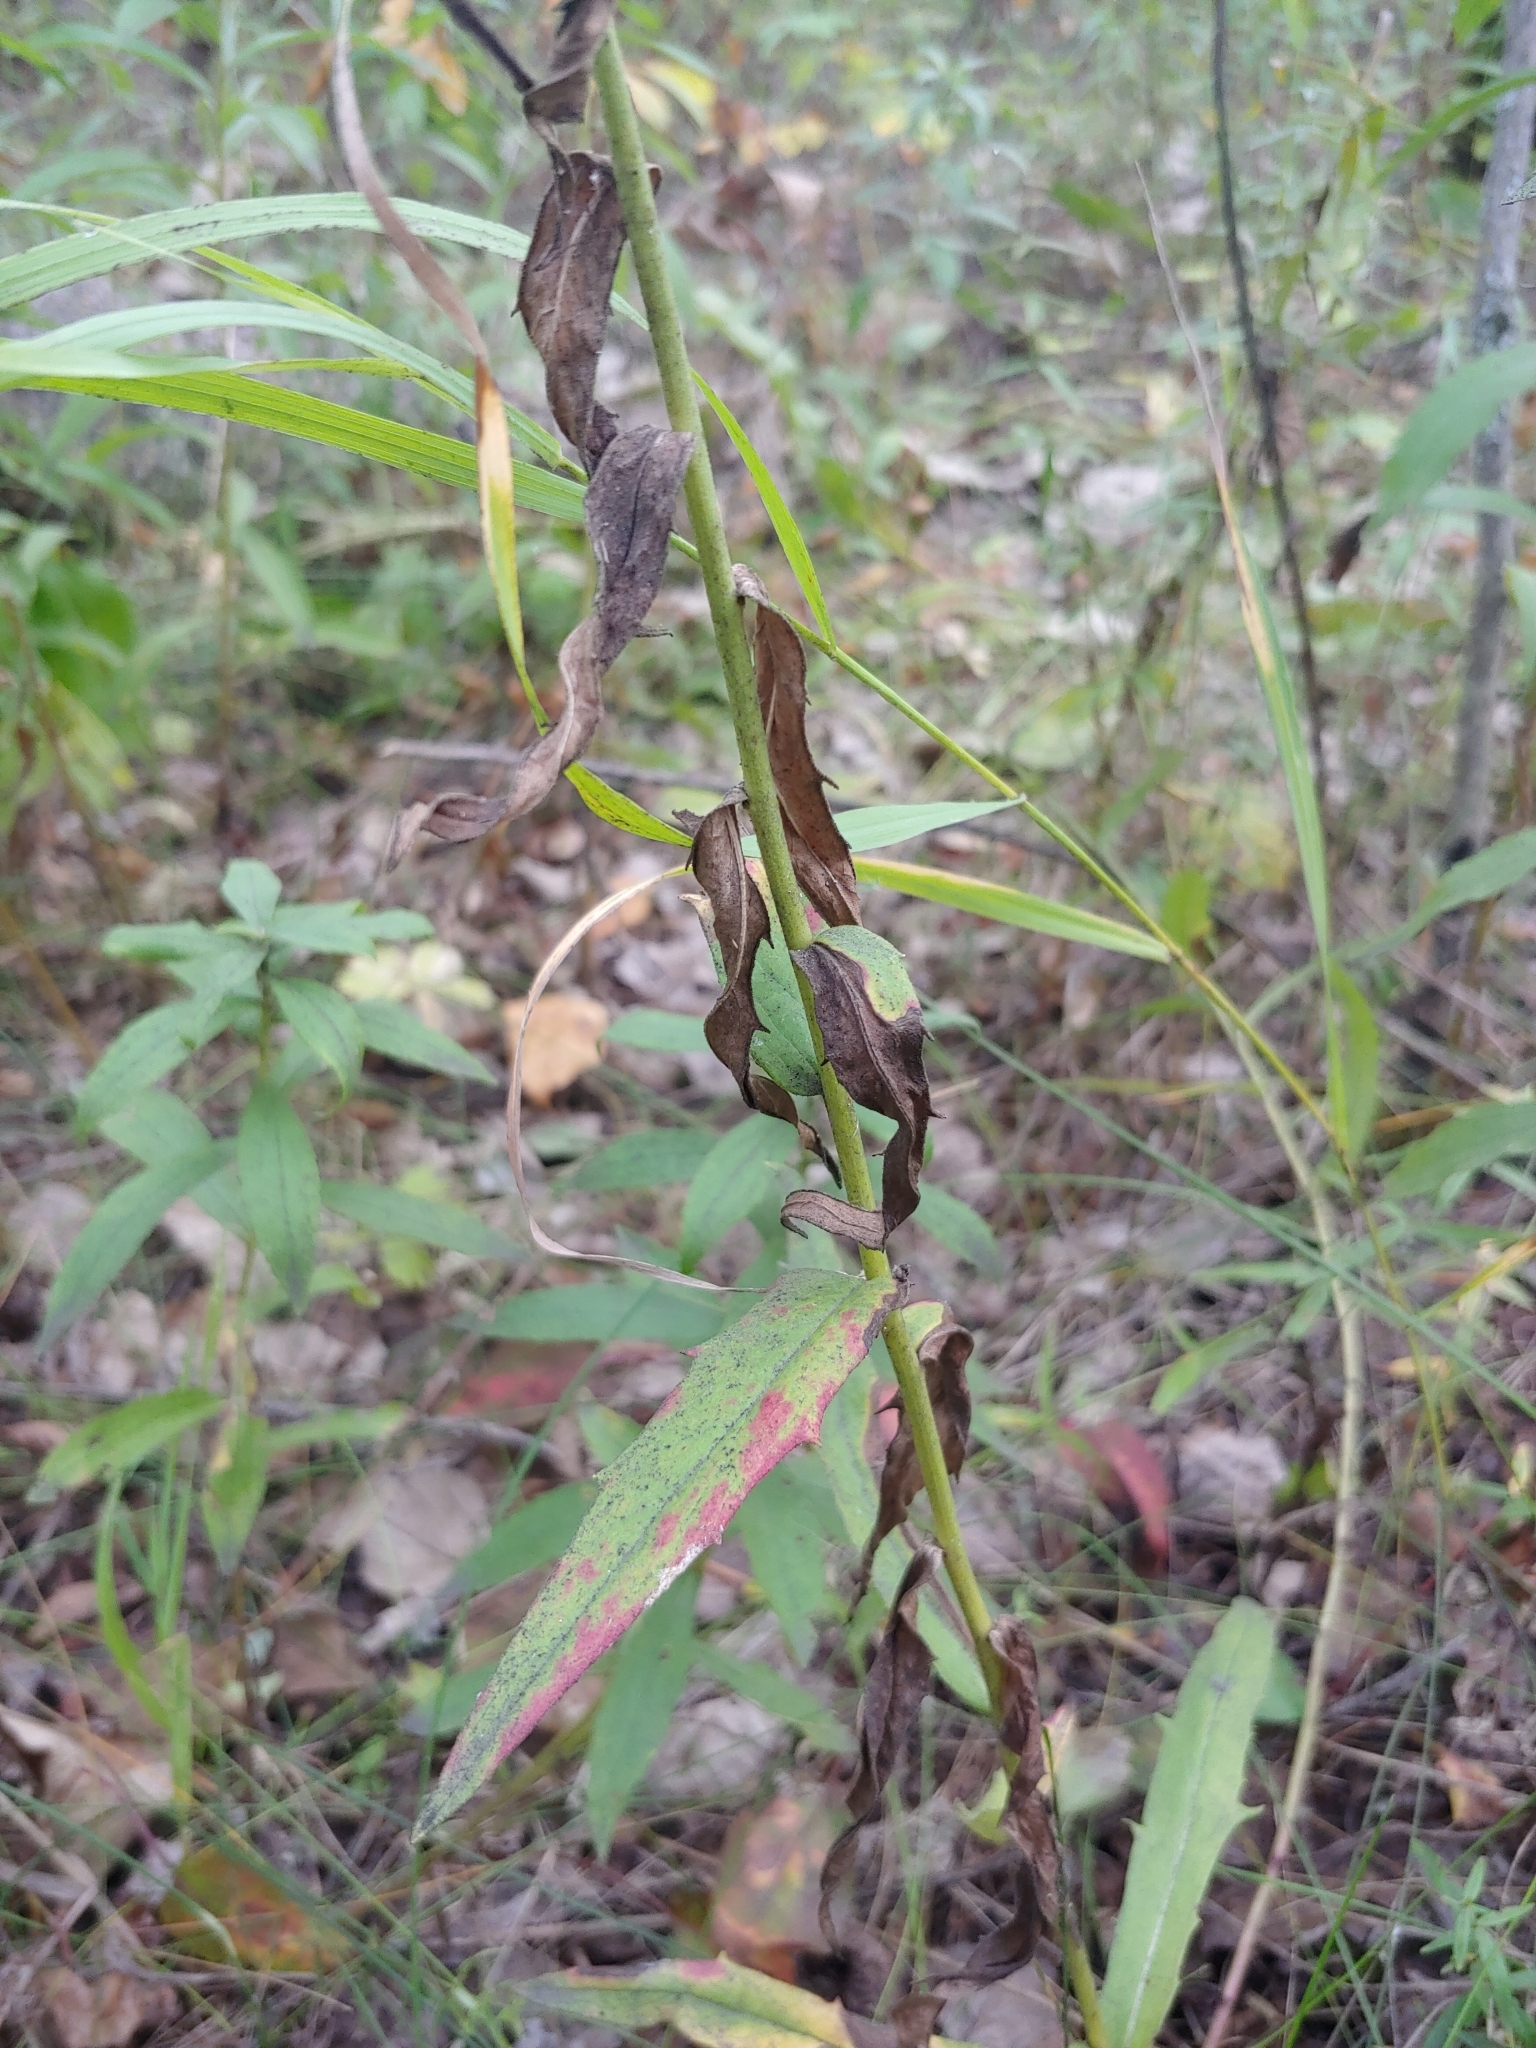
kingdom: Plantae
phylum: Tracheophyta
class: Magnoliopsida
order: Asterales
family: Asteraceae
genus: Hieracium
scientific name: Hieracium umbellatum
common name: Northern hawkweed
